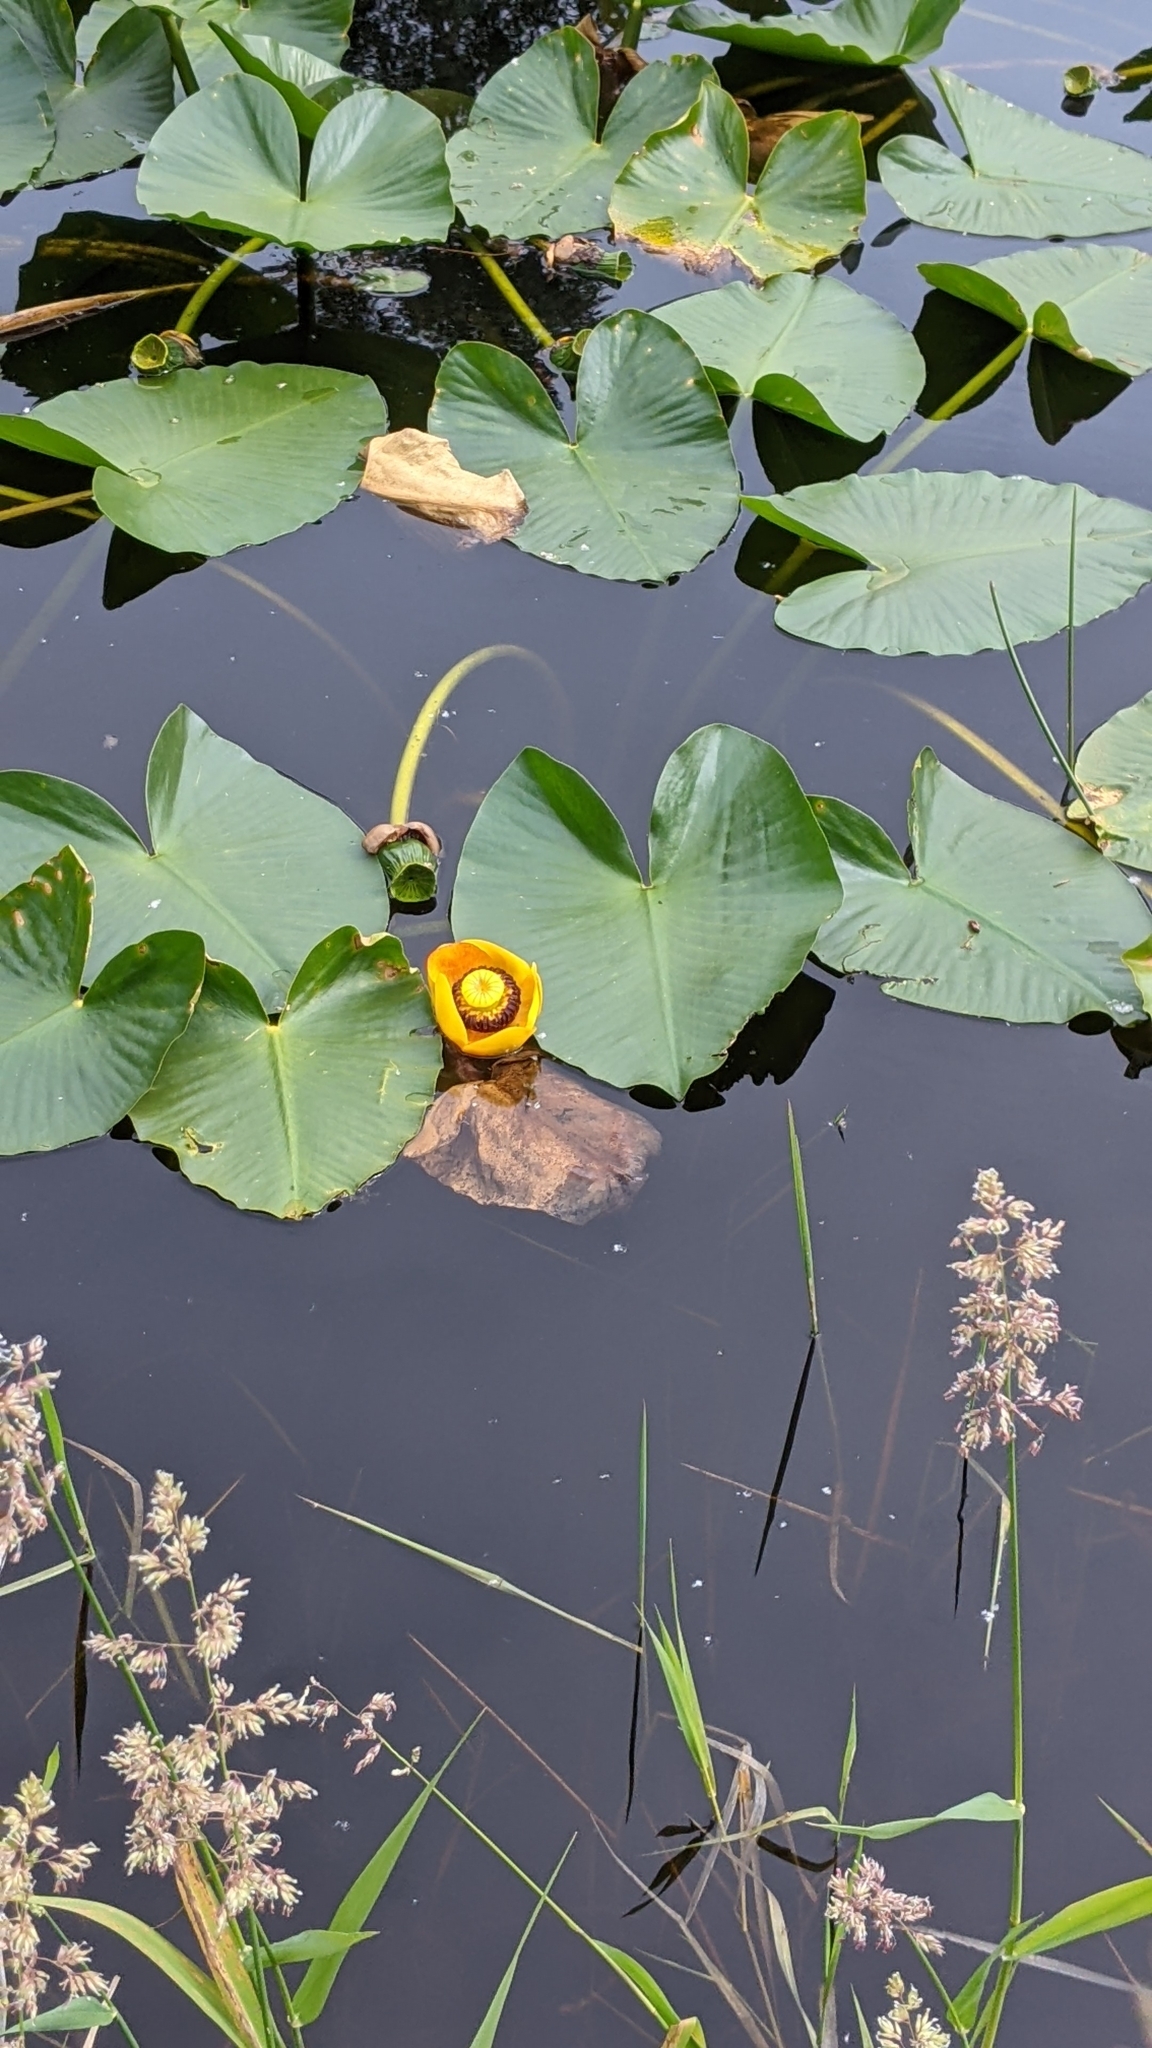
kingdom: Plantae
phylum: Tracheophyta
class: Magnoliopsida
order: Nymphaeales
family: Nymphaeaceae
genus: Nuphar
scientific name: Nuphar polysepala
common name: Rocky mountain cow-lily
